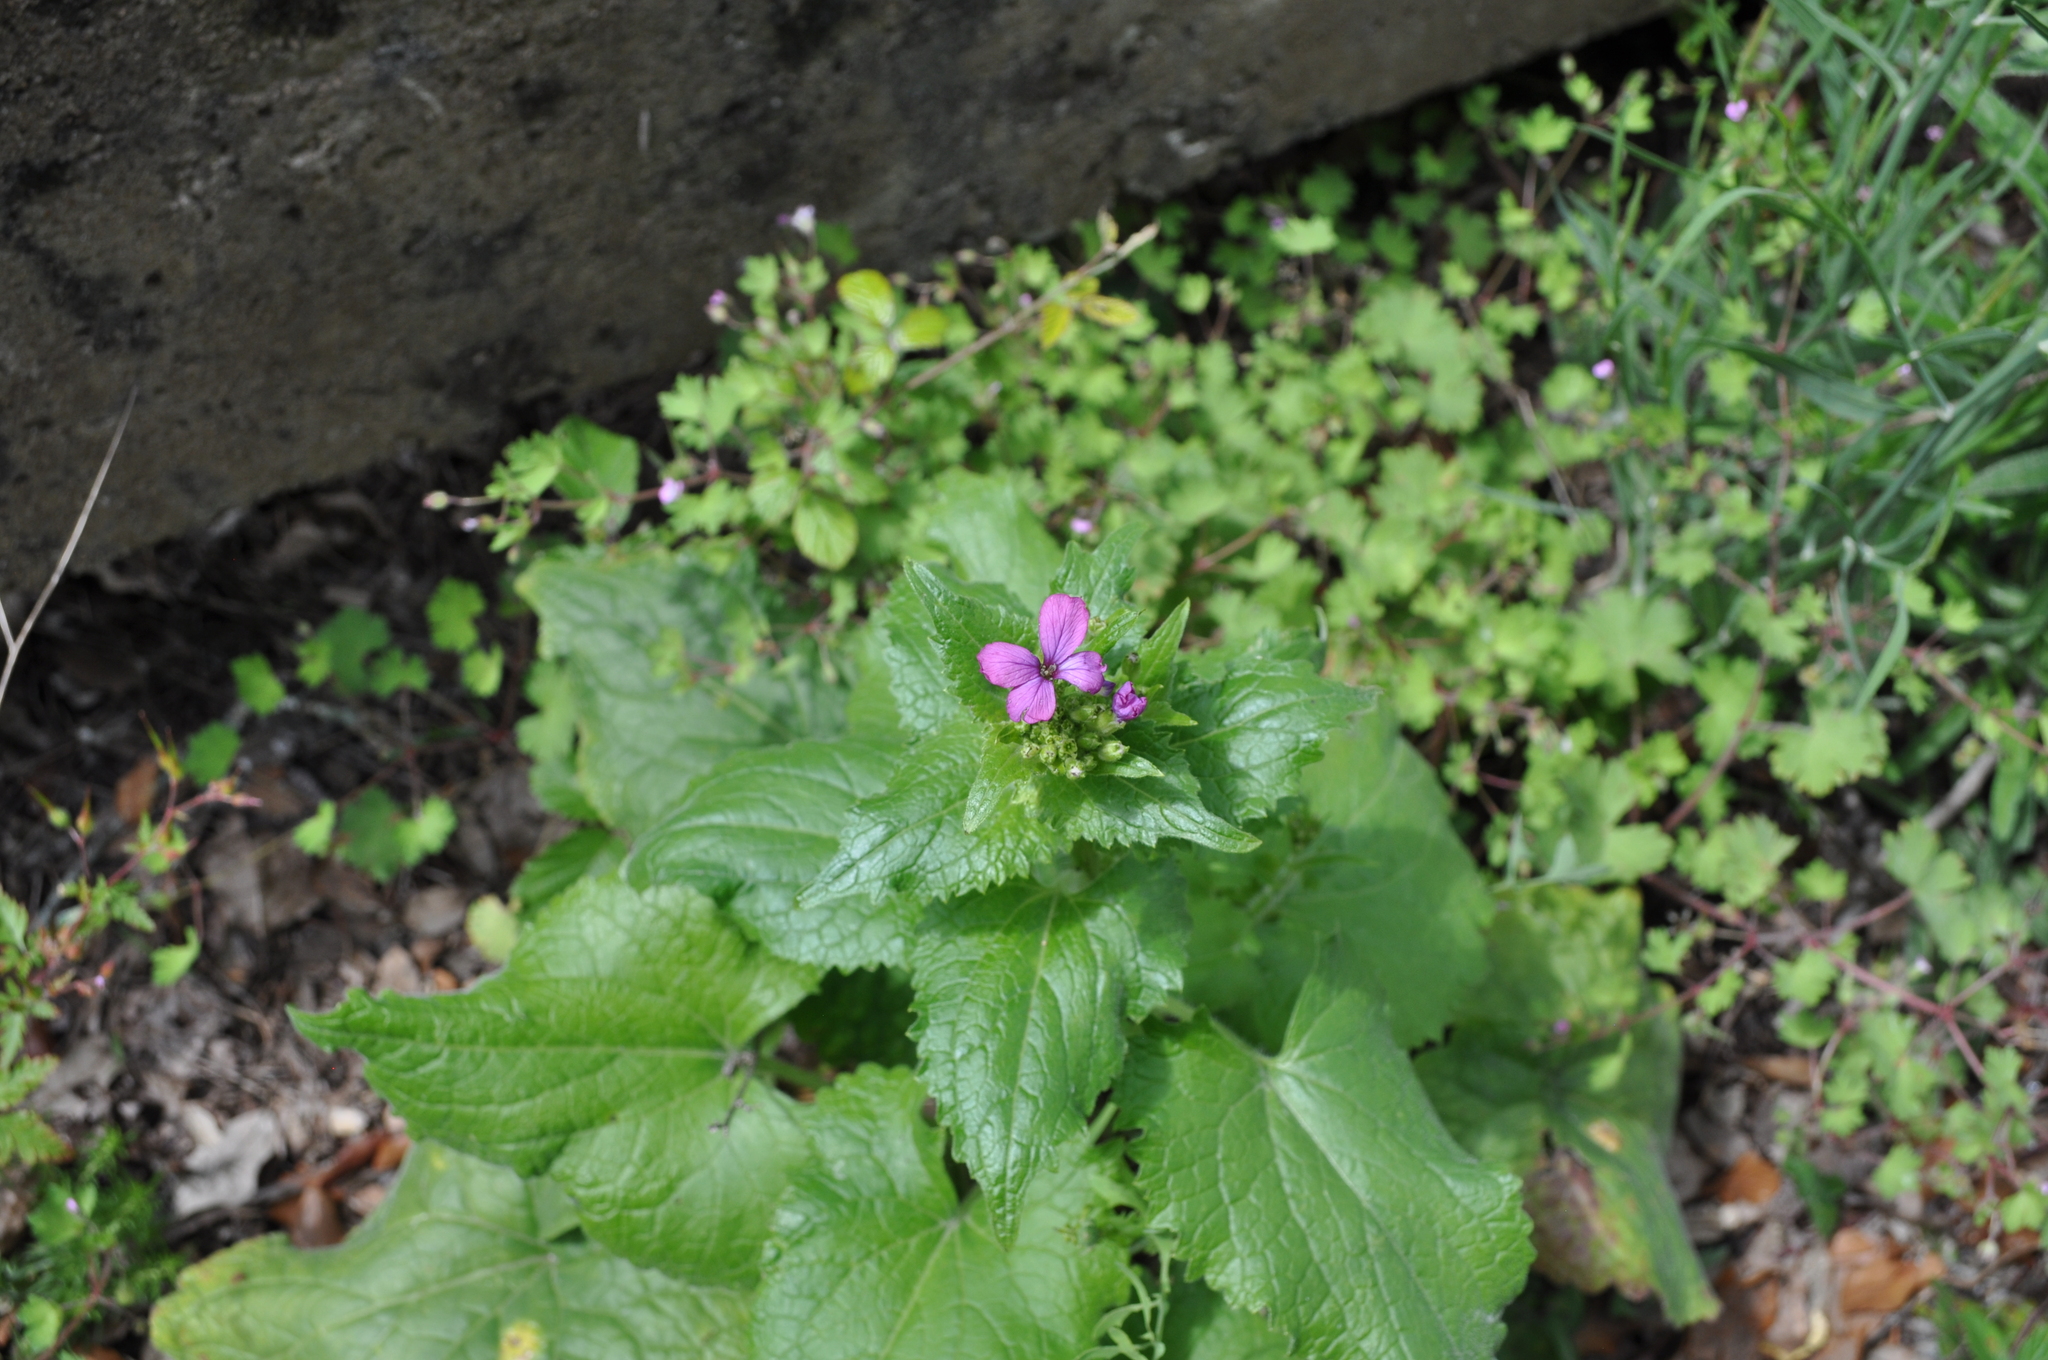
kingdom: Plantae
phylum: Tracheophyta
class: Magnoliopsida
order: Brassicales
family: Brassicaceae
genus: Lunaria
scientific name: Lunaria annua
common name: Honesty
